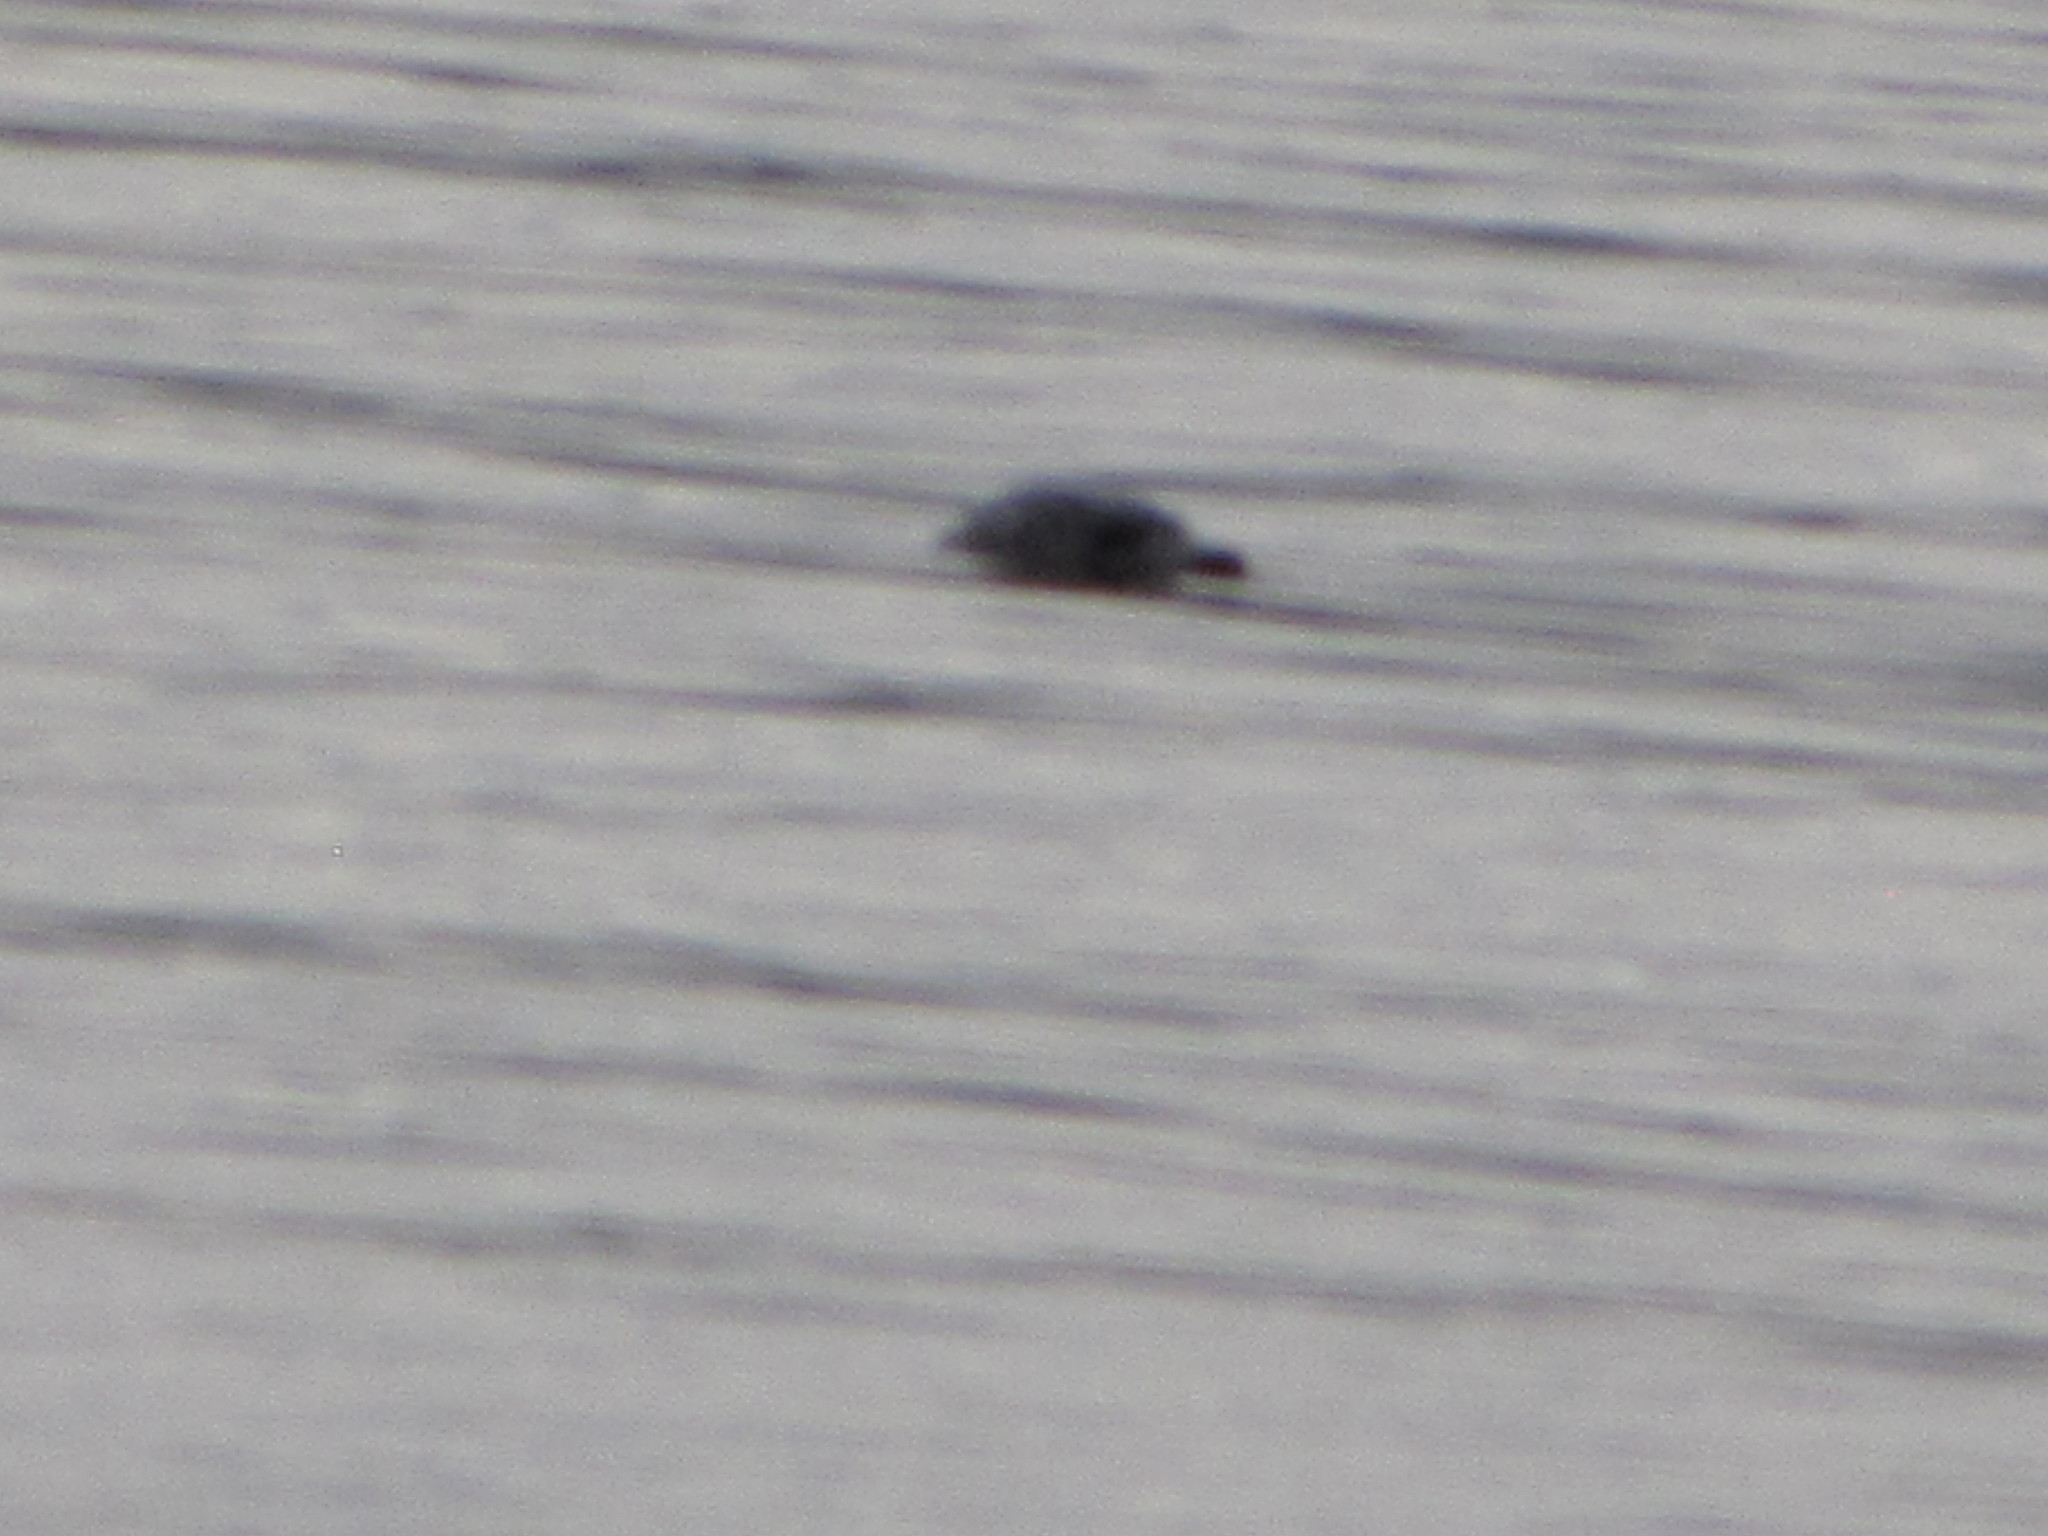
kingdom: Animalia
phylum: Chordata
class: Mammalia
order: Carnivora
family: Phocidae
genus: Phoca
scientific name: Phoca vitulina
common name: Harbor seal
